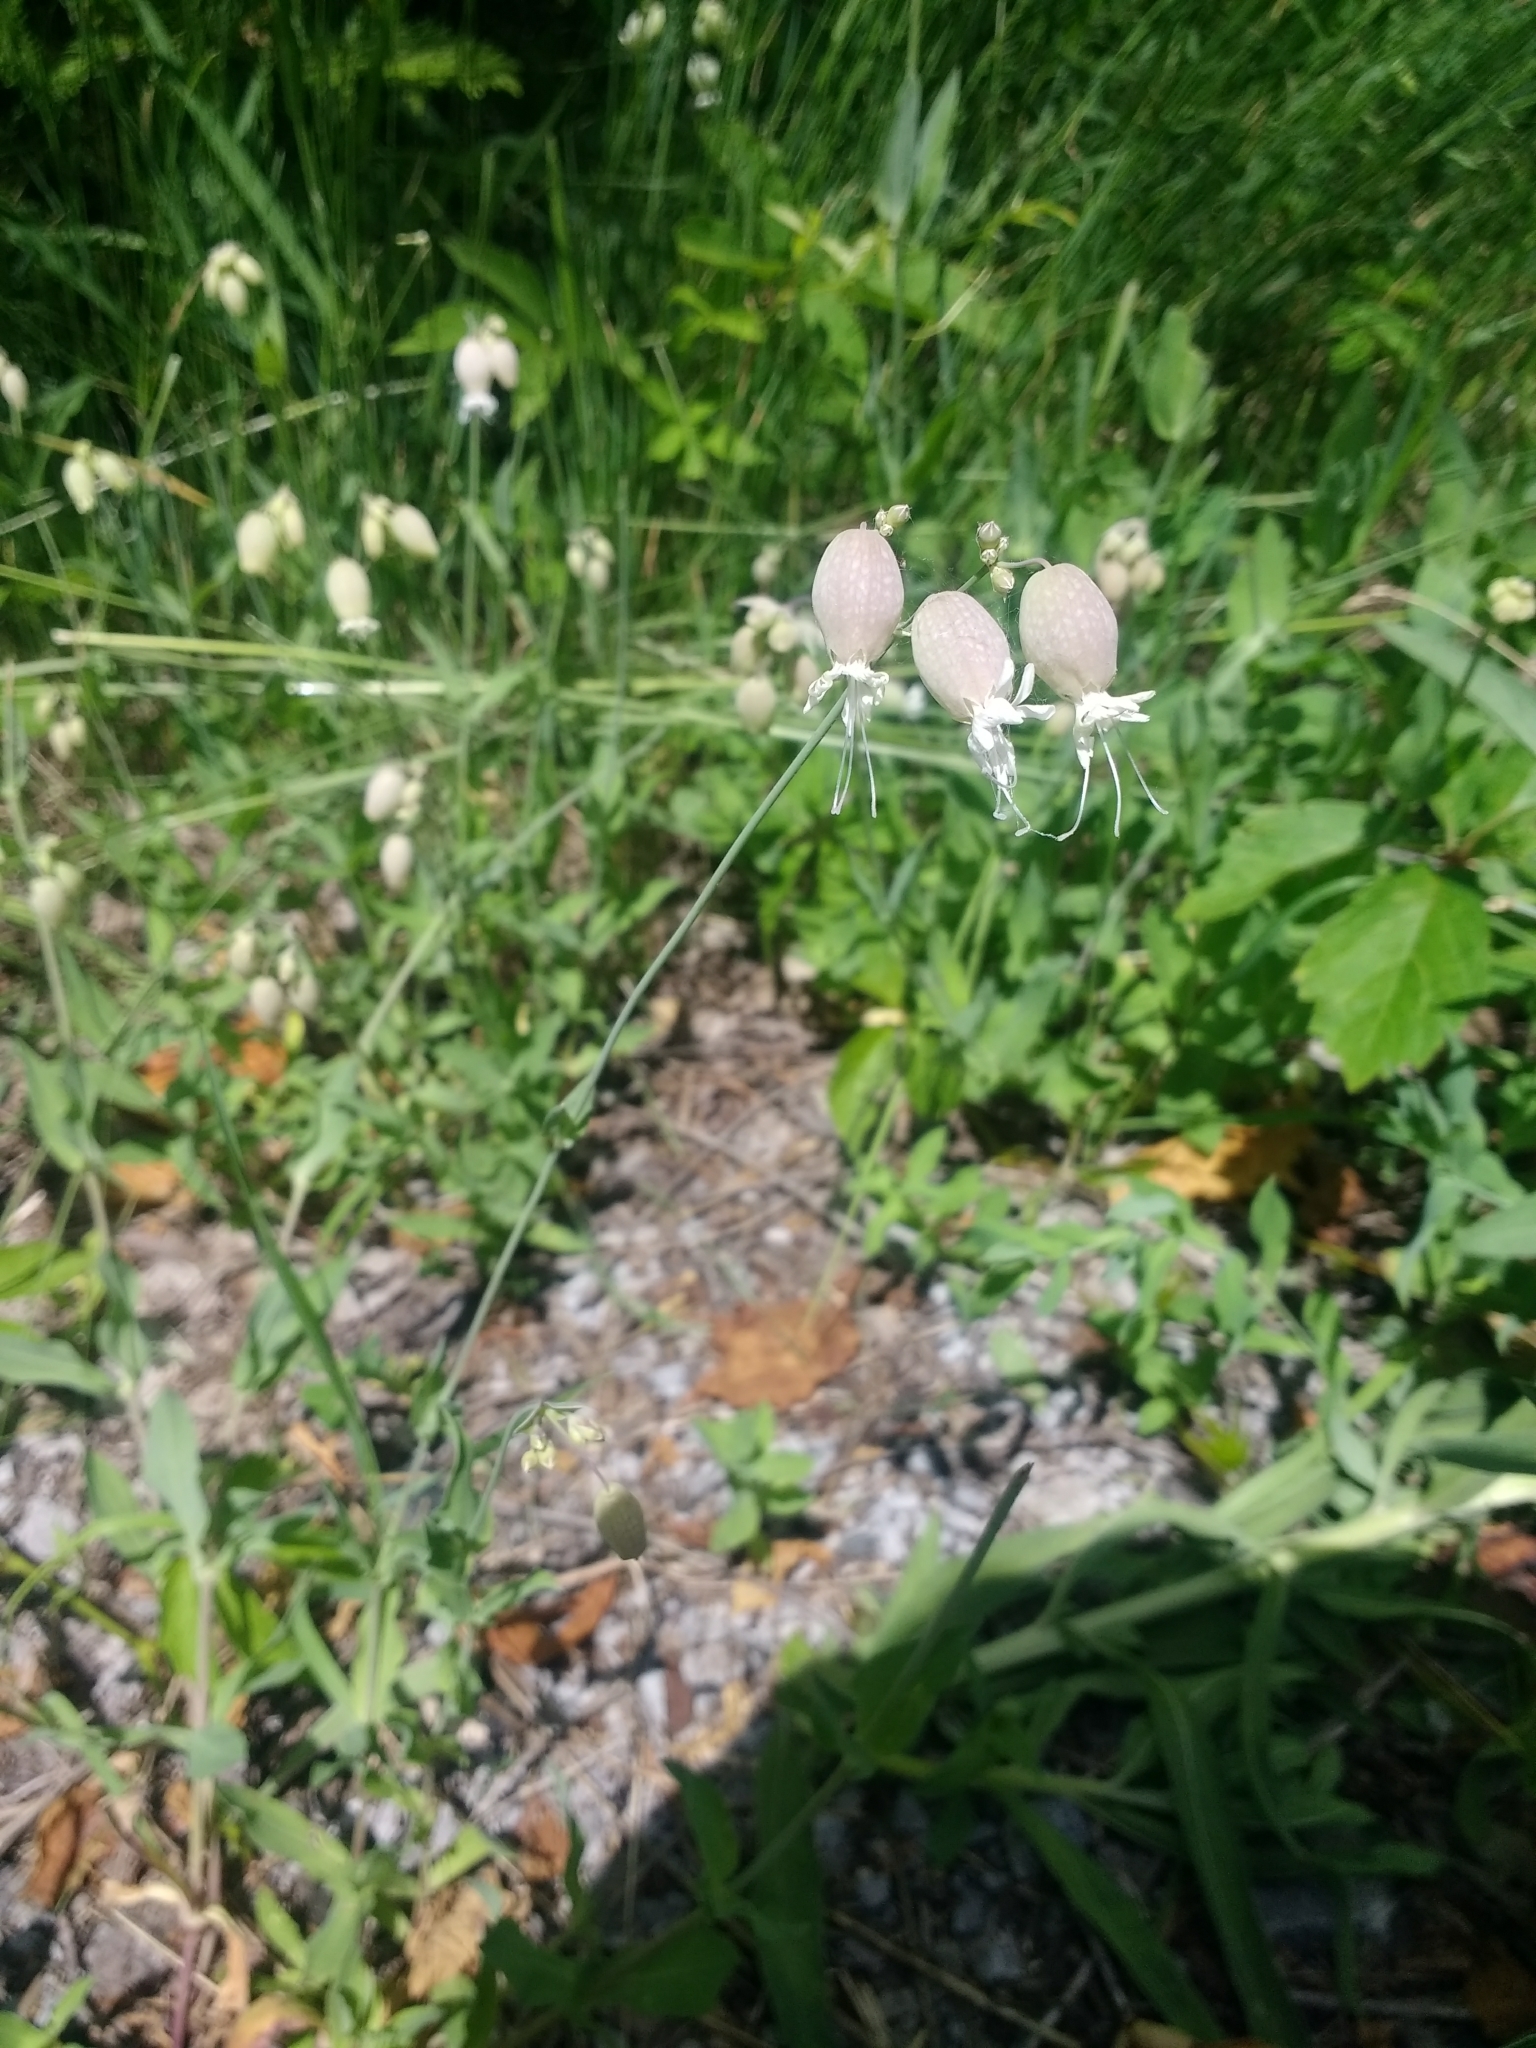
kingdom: Plantae
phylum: Tracheophyta
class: Magnoliopsida
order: Caryophyllales
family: Caryophyllaceae
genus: Silene
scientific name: Silene vulgaris
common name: Bladder campion
